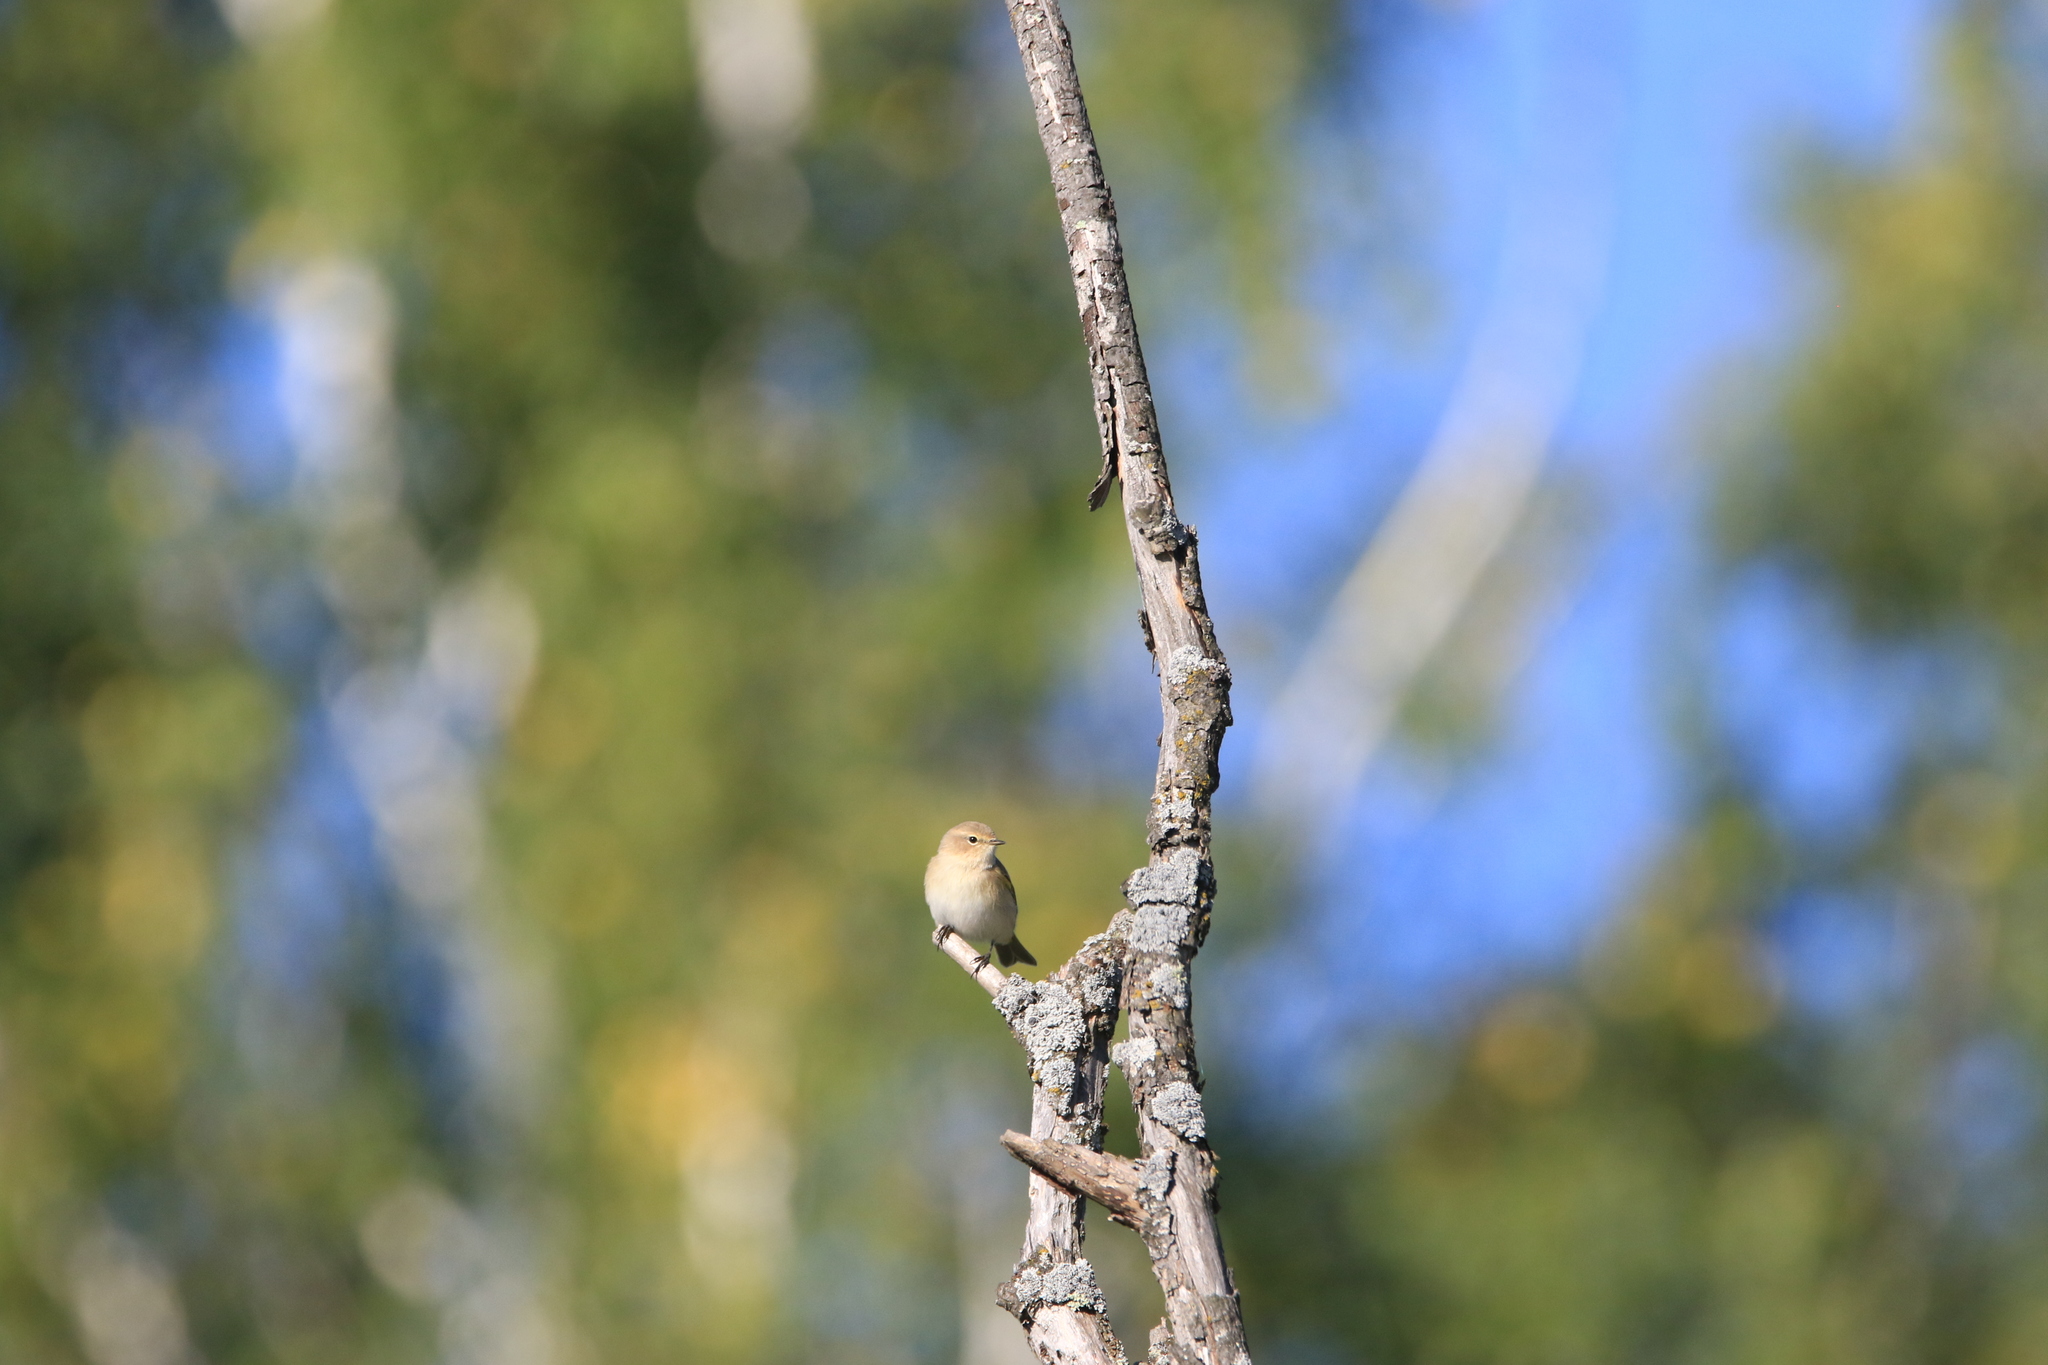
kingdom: Animalia
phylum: Chordata
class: Aves
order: Passeriformes
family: Phylloscopidae
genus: Phylloscopus
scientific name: Phylloscopus collybita
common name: Common chiffchaff
